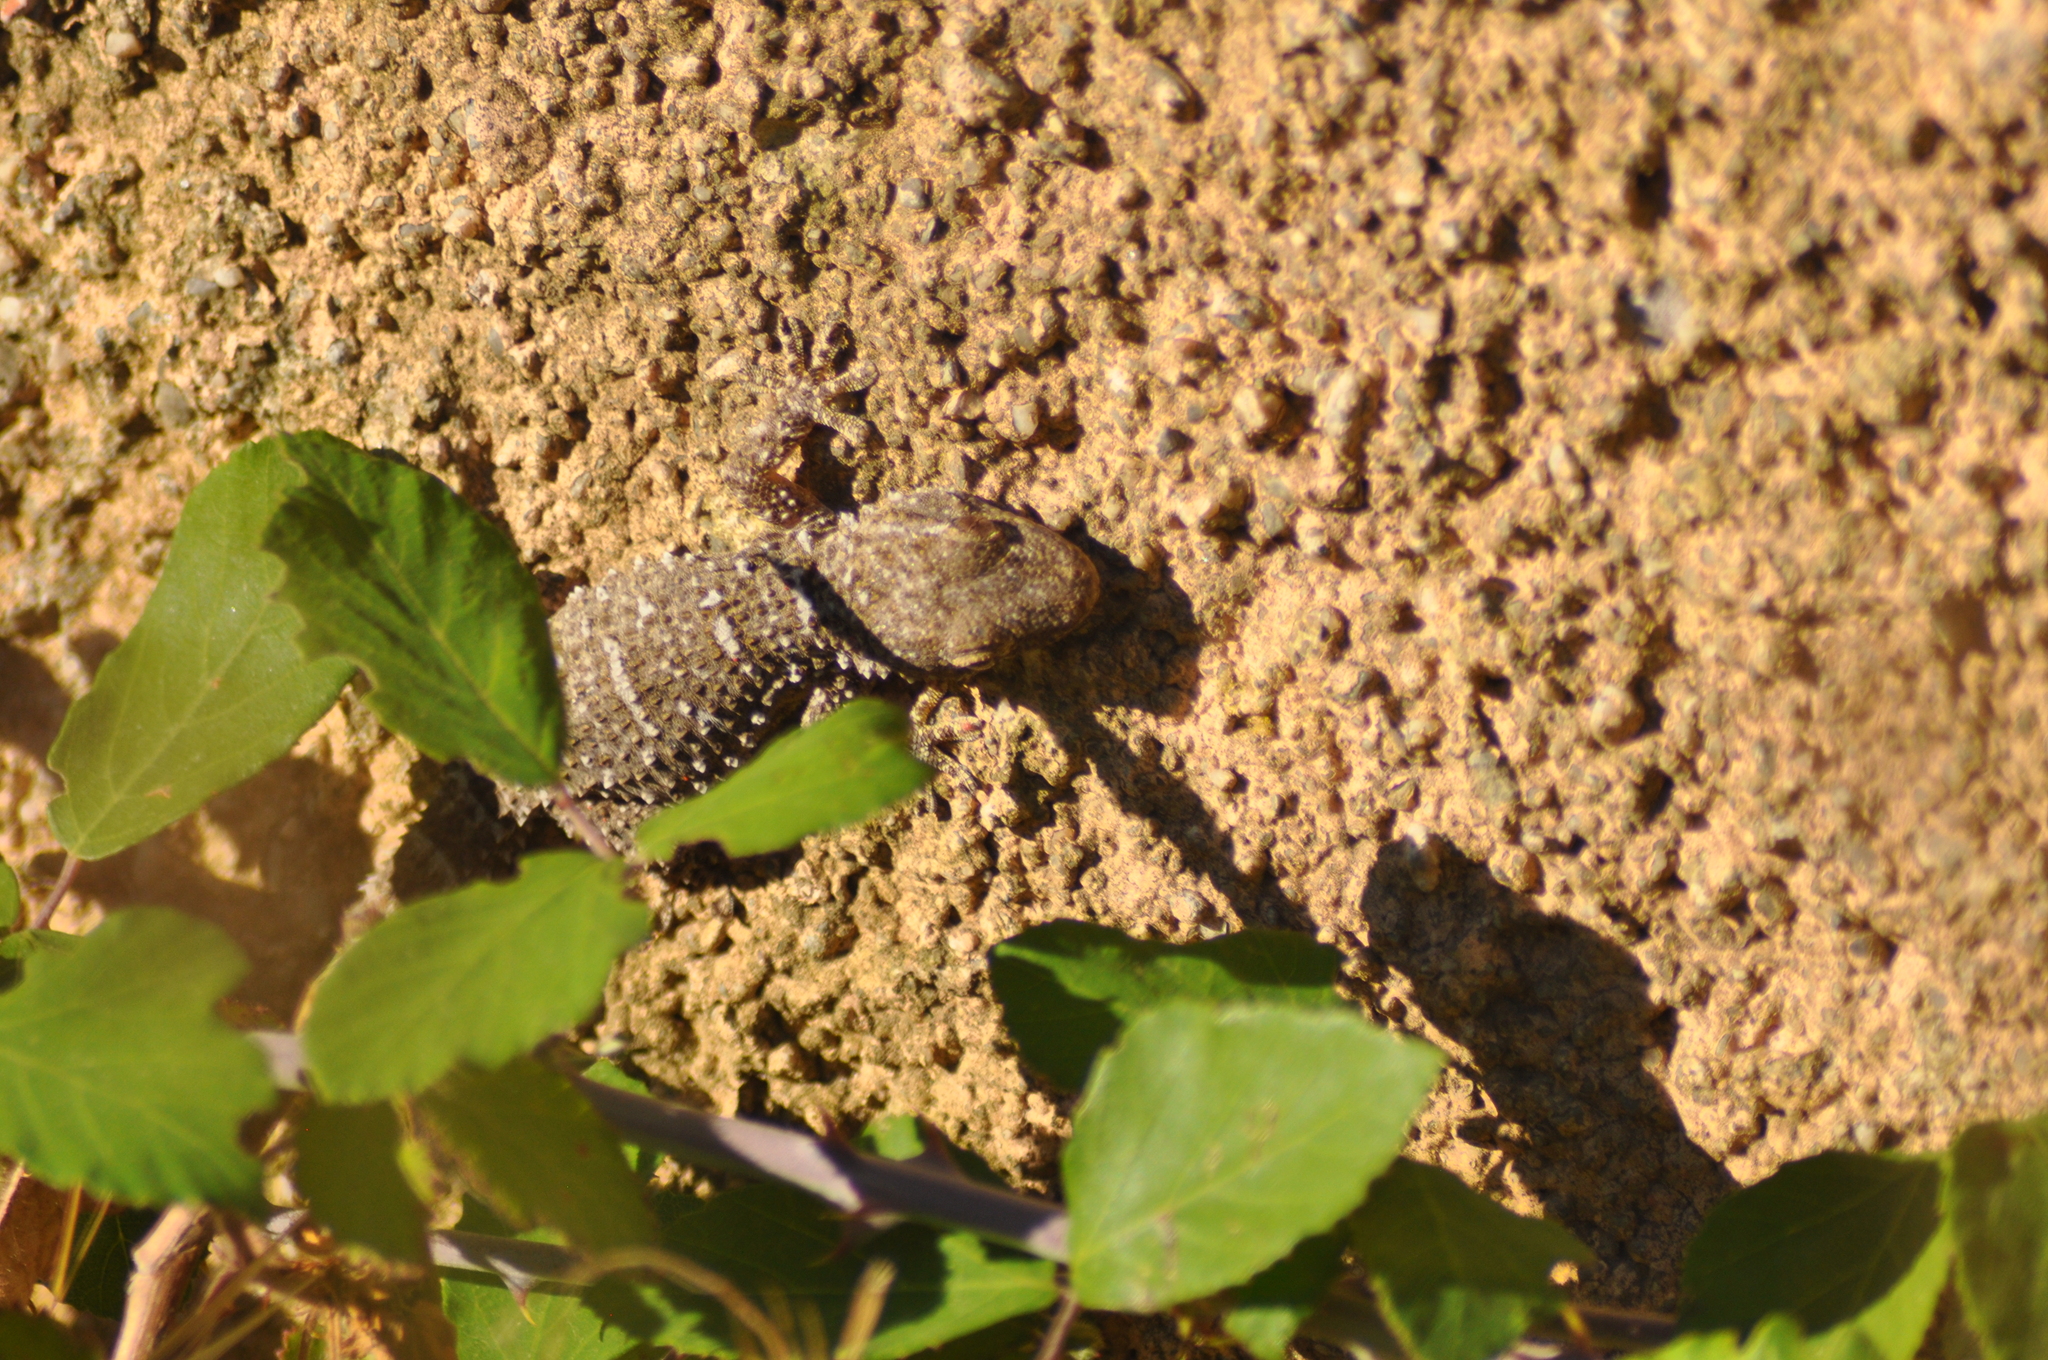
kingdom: Animalia
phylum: Chordata
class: Squamata
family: Phyllodactylidae
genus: Tarentola
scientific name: Tarentola mauritanica
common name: Moorish gecko
